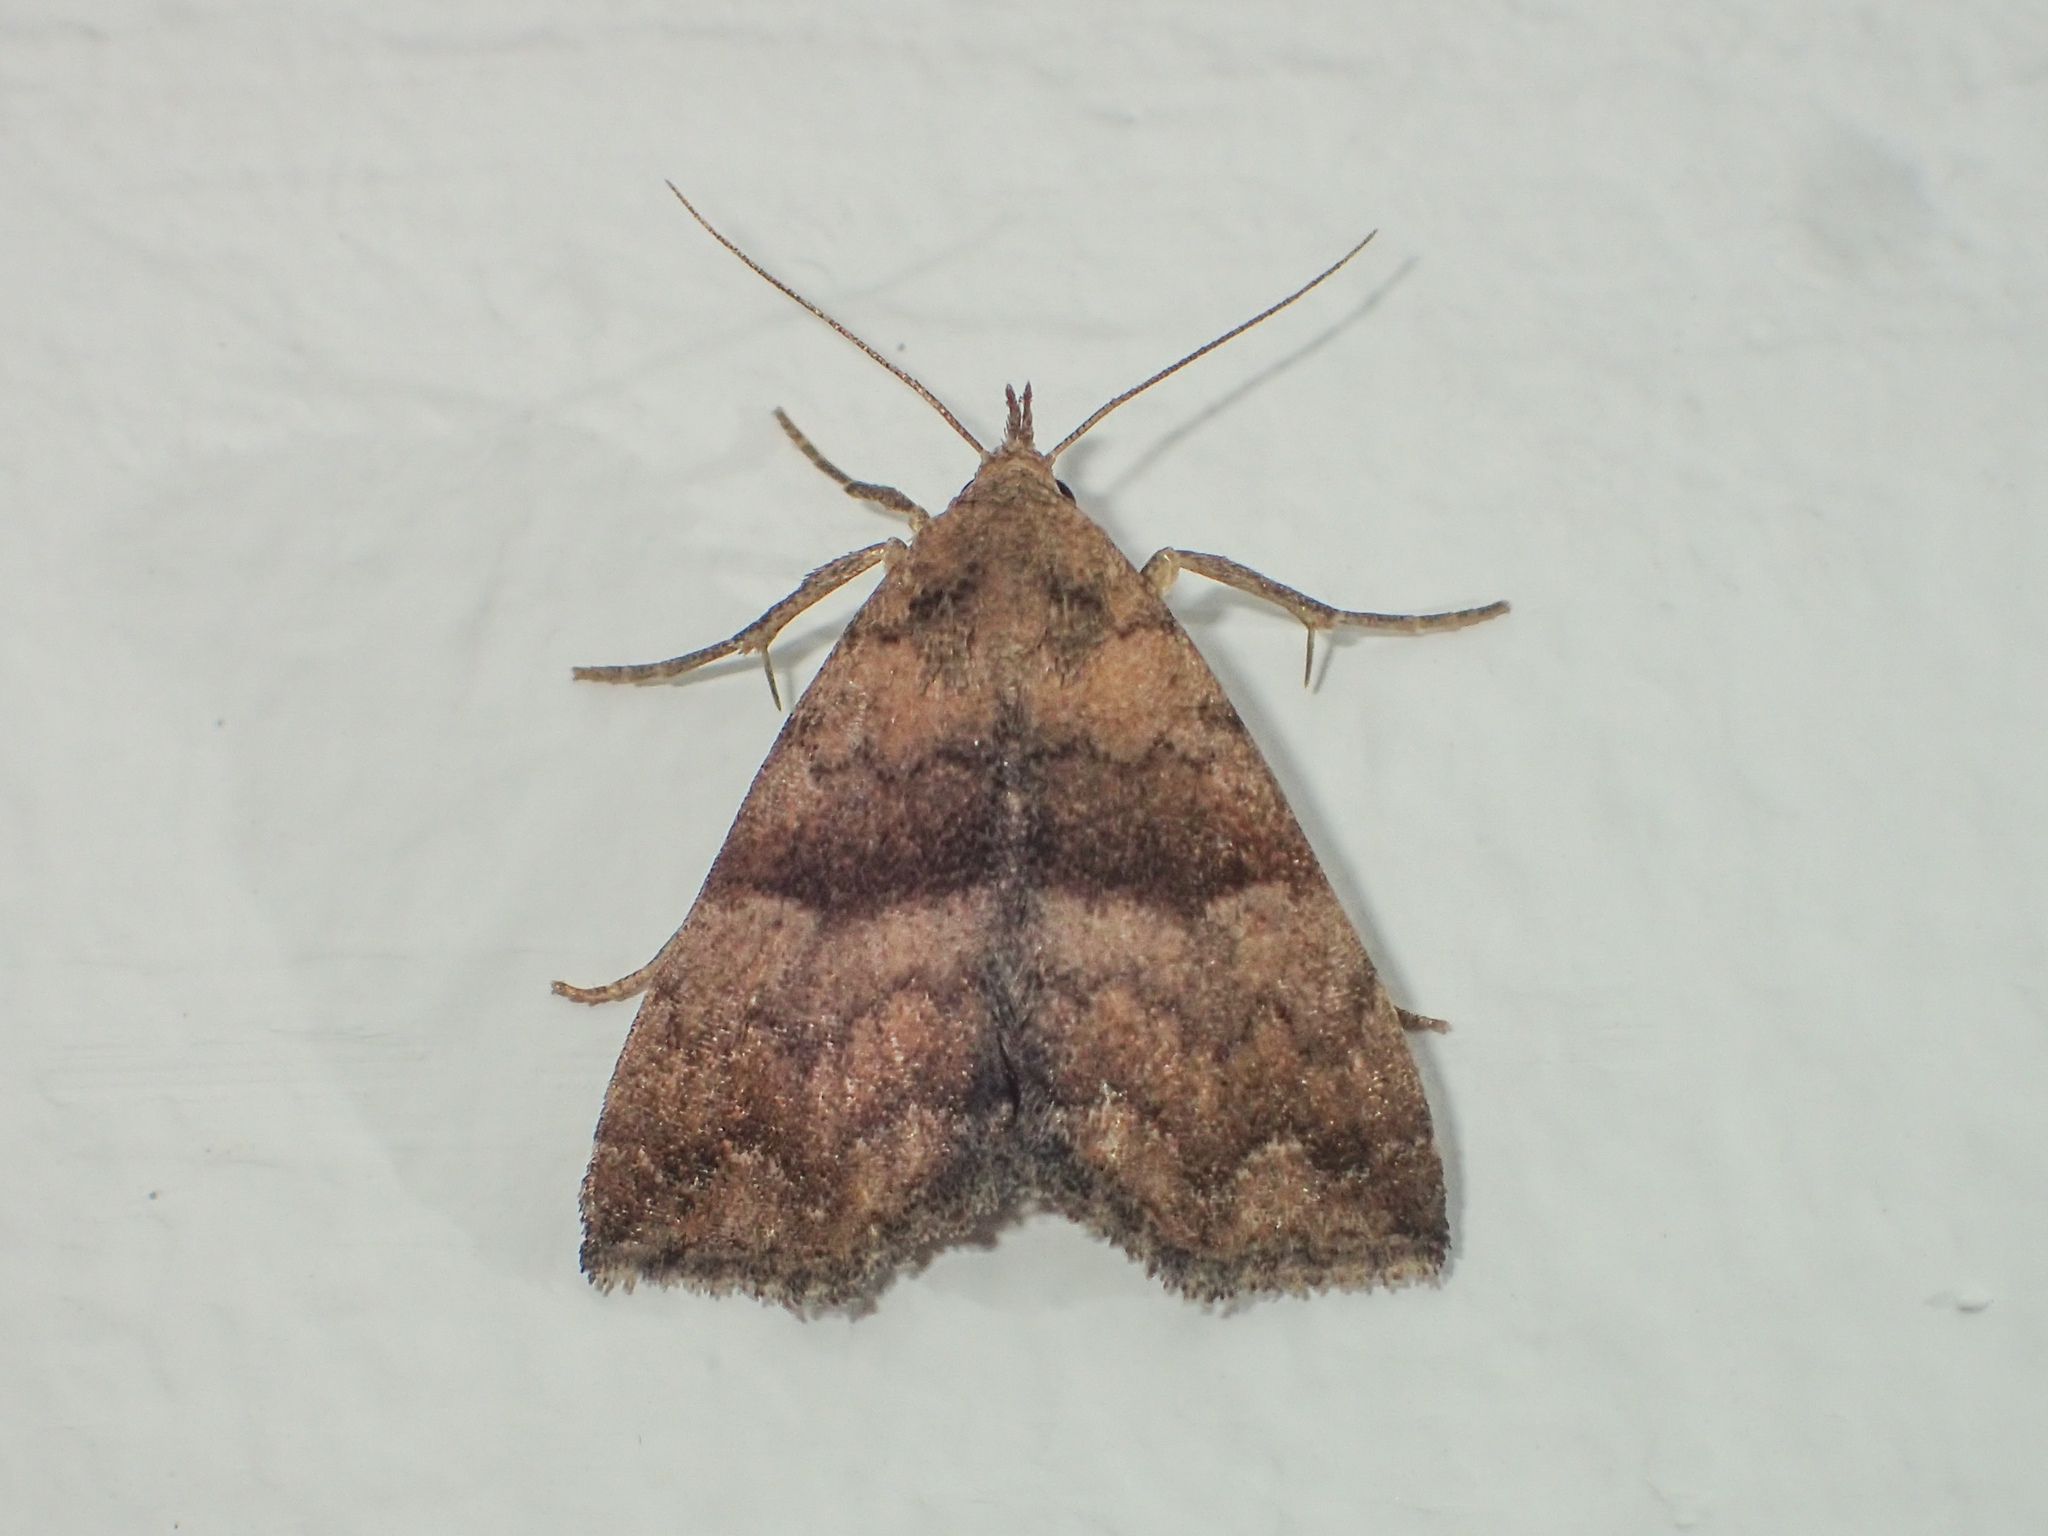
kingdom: Animalia
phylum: Arthropoda
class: Insecta
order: Lepidoptera
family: Erebidae
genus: Polypogon
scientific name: Polypogon Hipoepa fractalis
